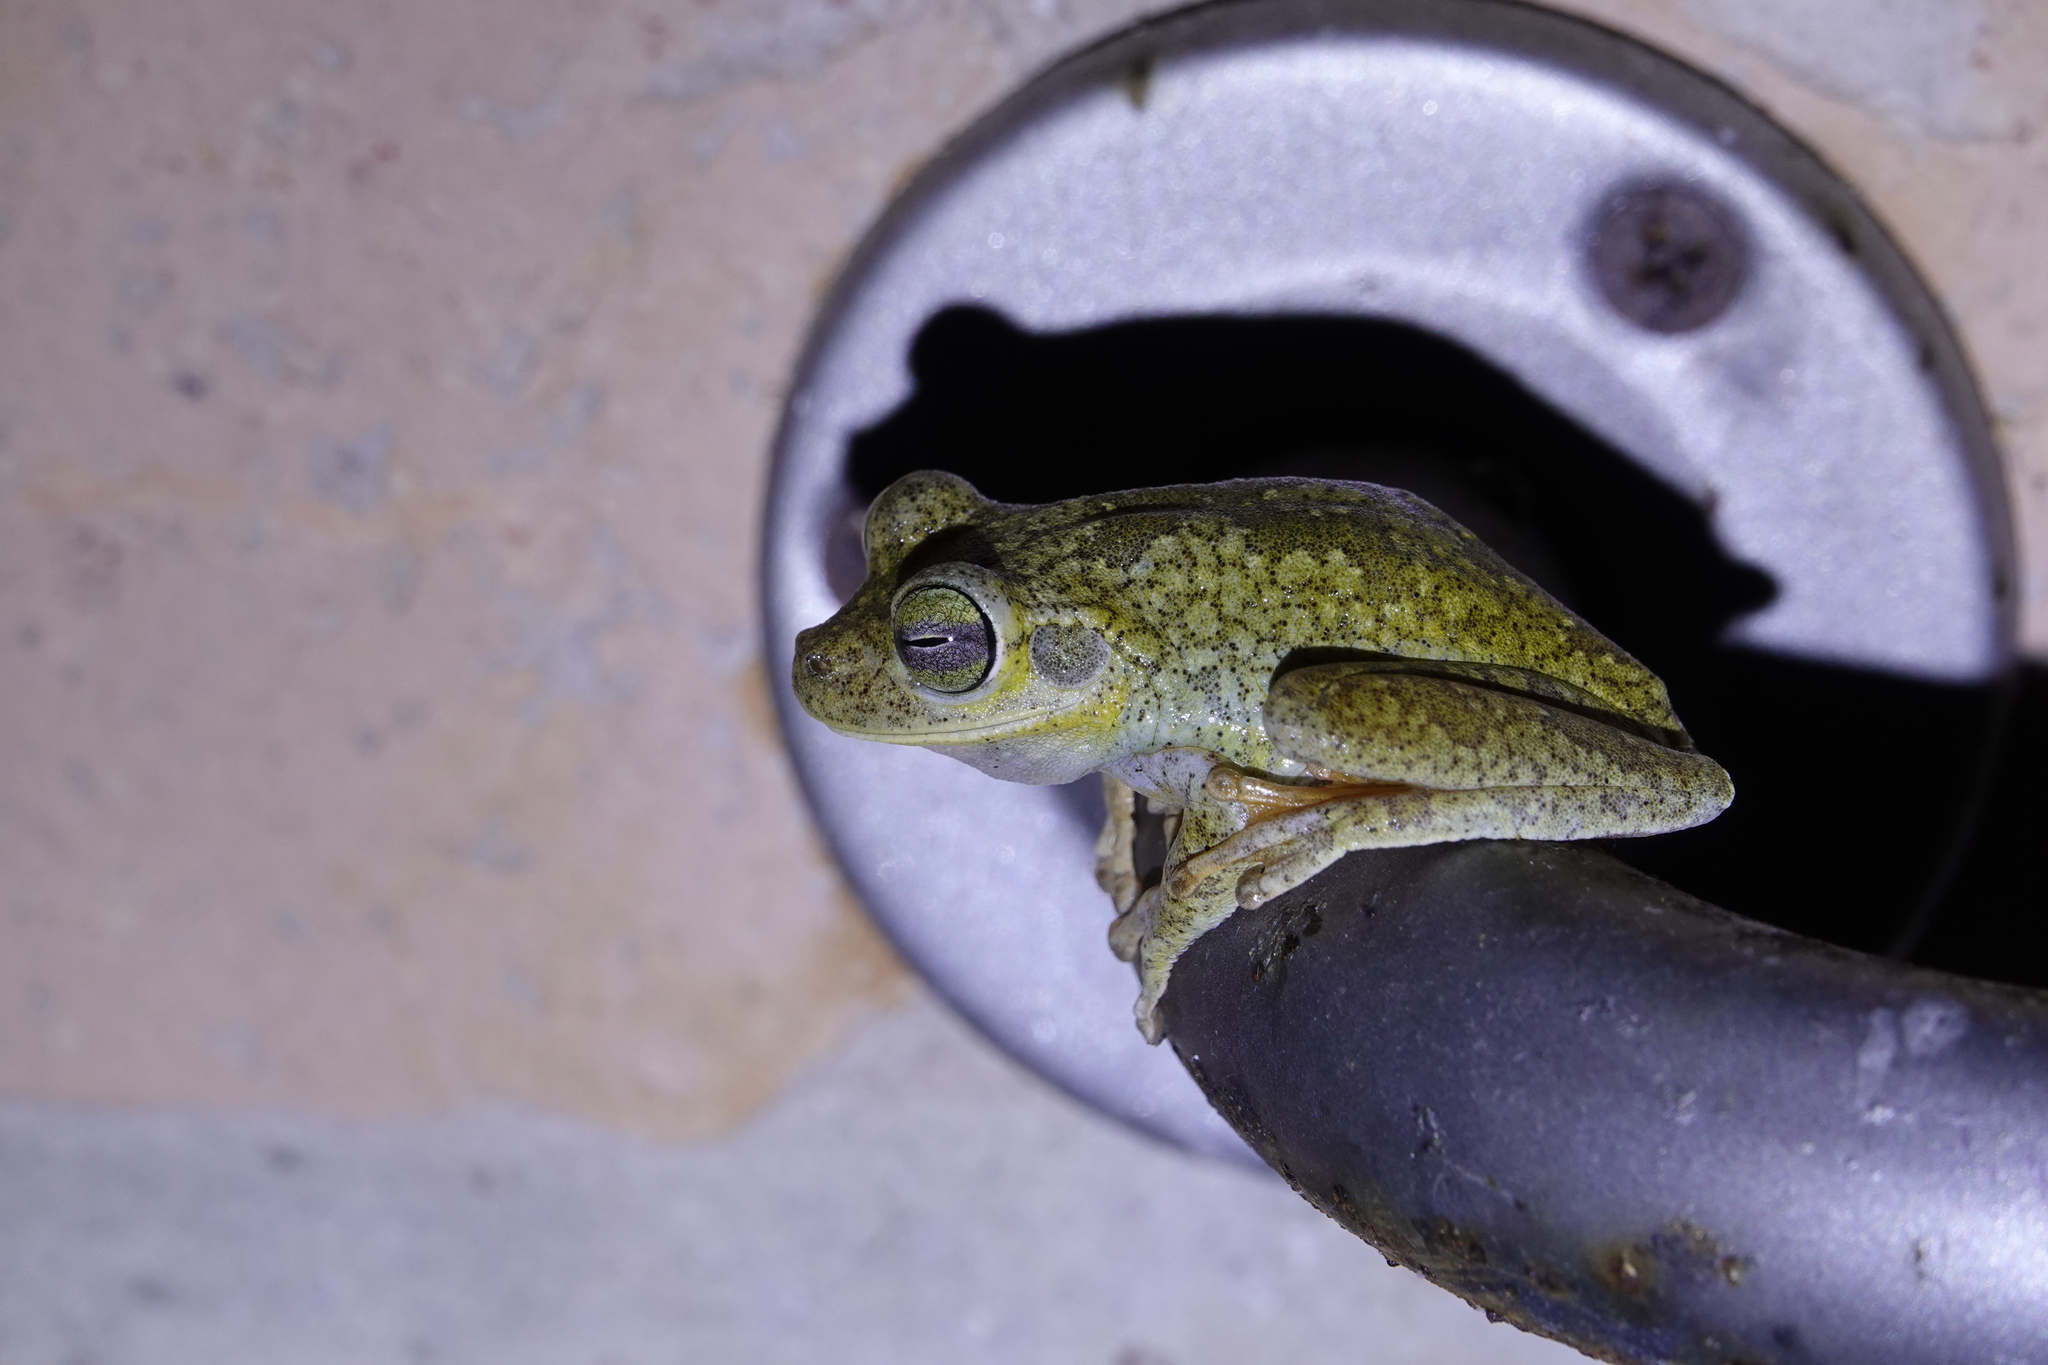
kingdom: Animalia
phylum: Chordata
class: Amphibia
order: Anura
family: Hylidae
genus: Boana
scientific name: Boana xerophylla
